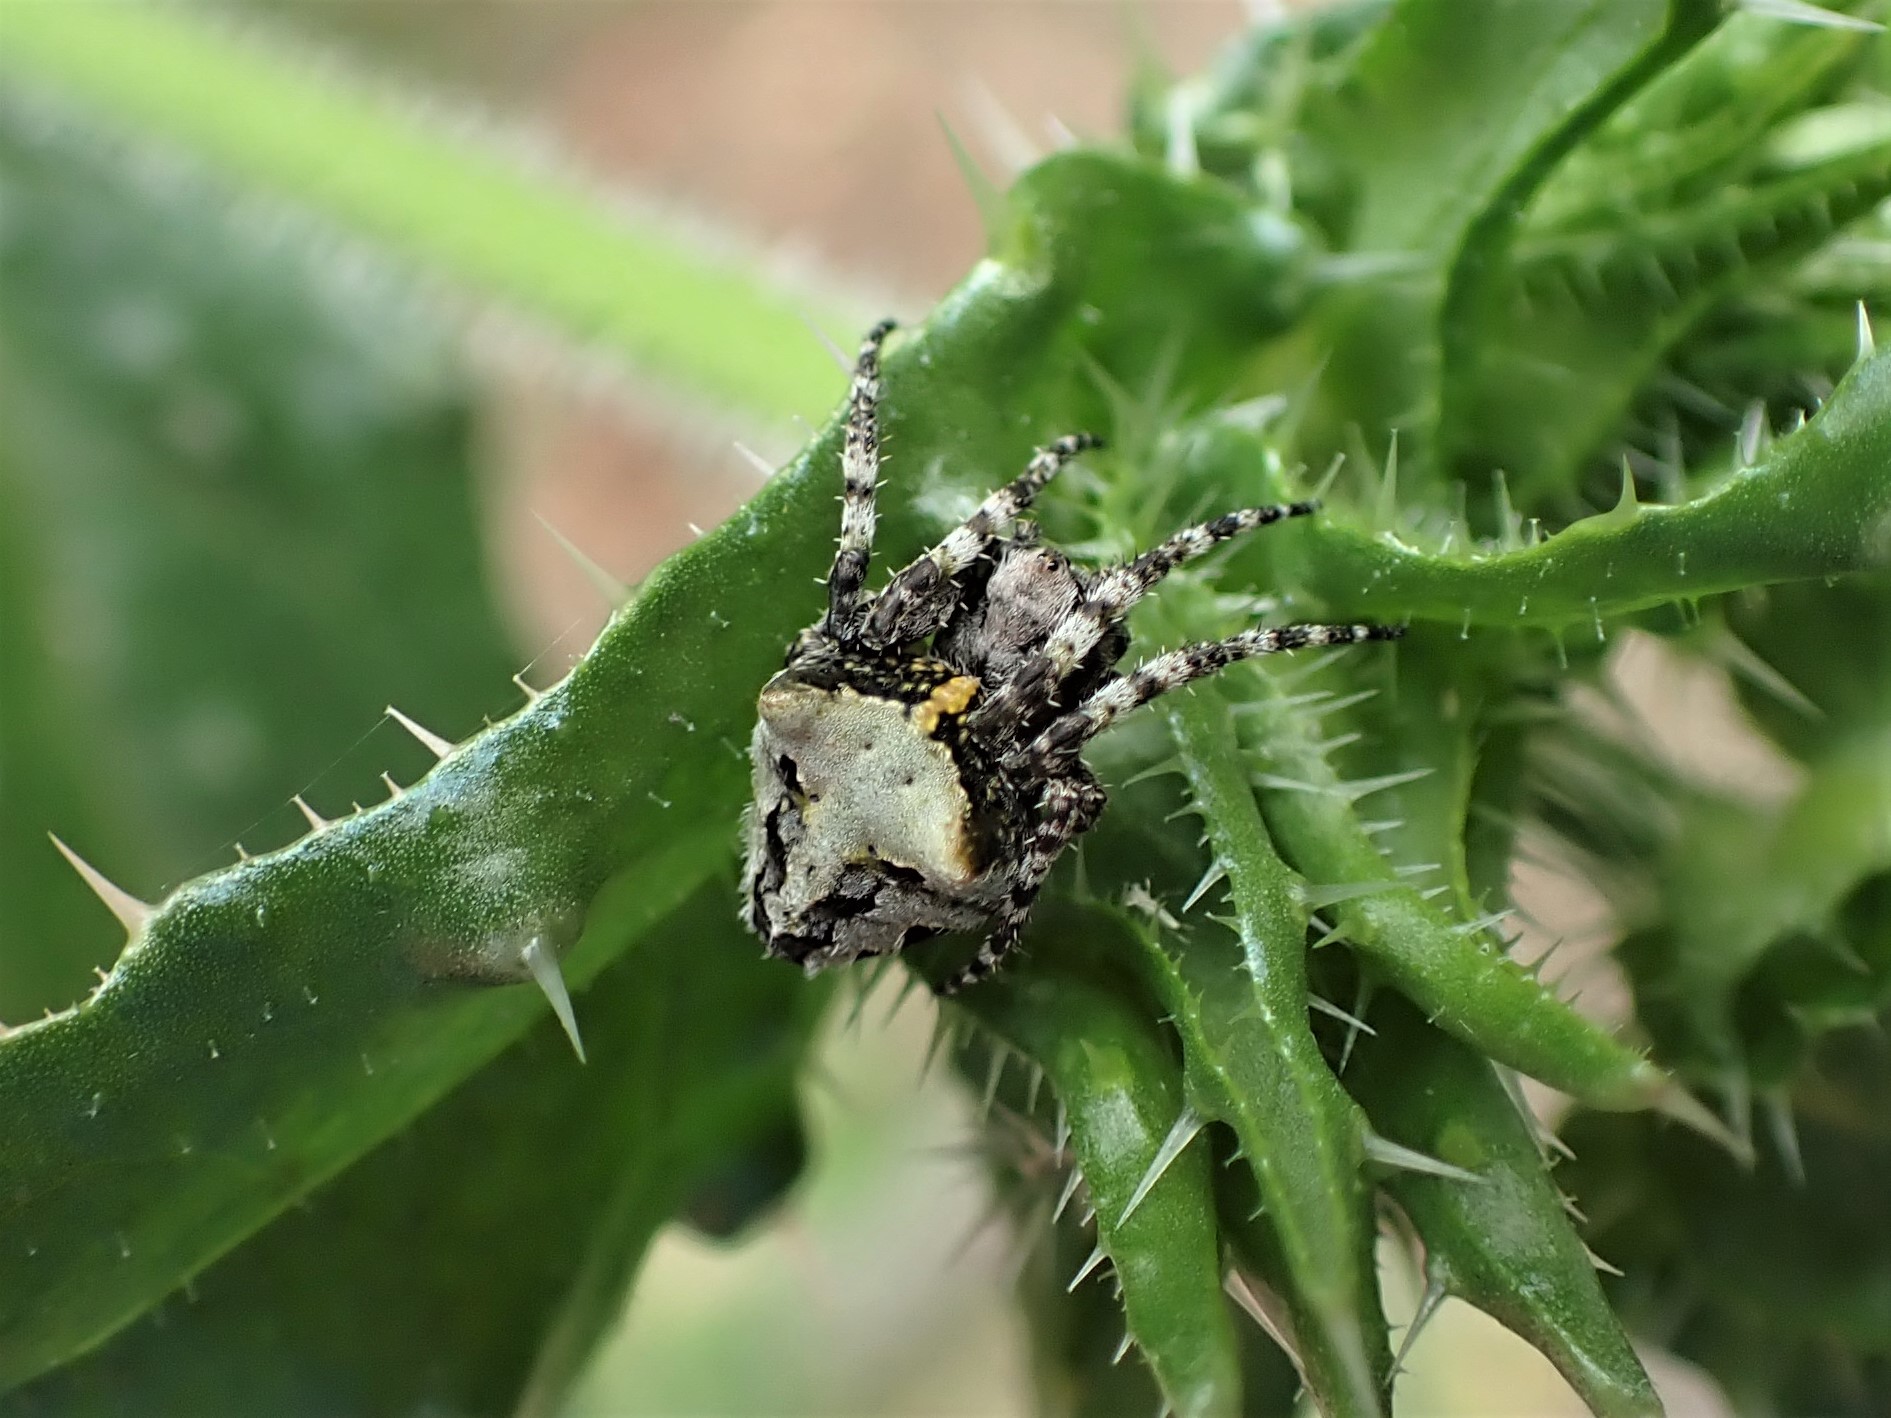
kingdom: Animalia
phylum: Arthropoda
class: Arachnida
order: Araneae
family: Araneidae
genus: Courtaraneus
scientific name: Courtaraneus orientalis
